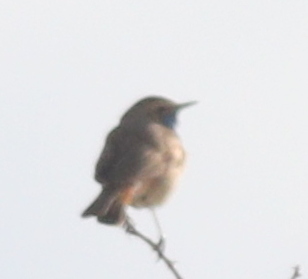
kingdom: Animalia
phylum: Chordata
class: Aves
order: Passeriformes
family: Muscicapidae
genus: Luscinia
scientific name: Luscinia svecica
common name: Bluethroat
